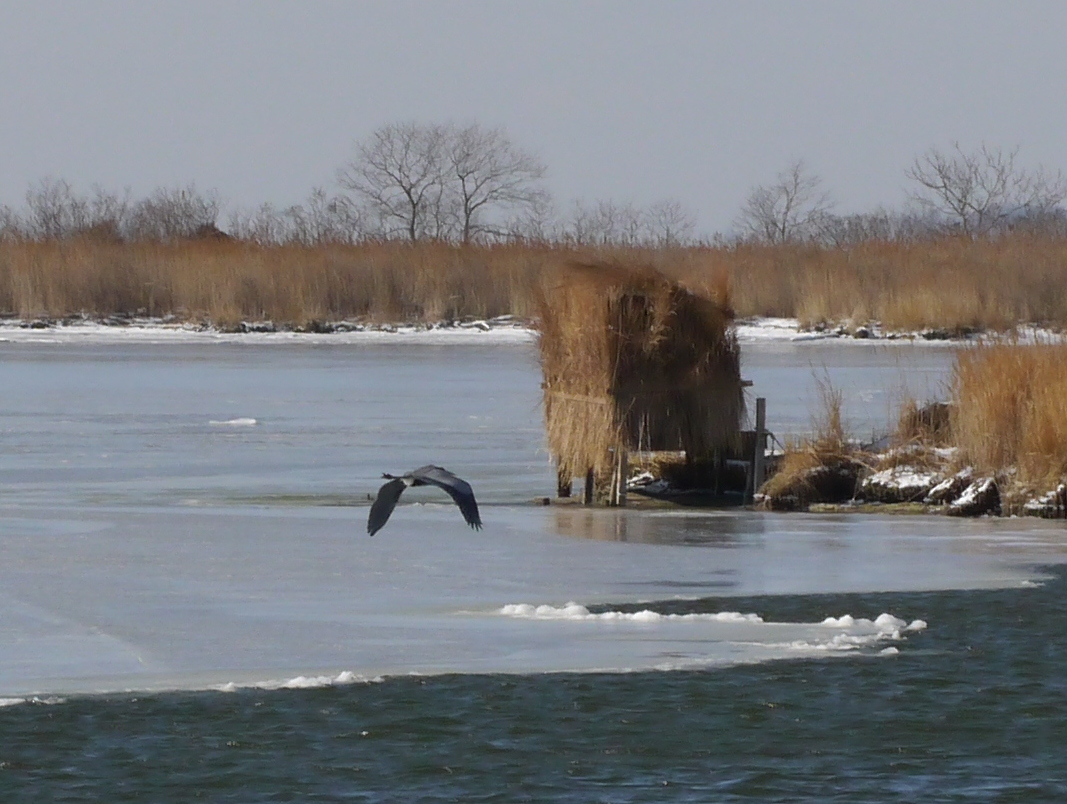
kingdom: Animalia
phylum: Chordata
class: Aves
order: Pelecaniformes
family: Ardeidae
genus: Ardea
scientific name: Ardea herodias
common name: Great blue heron
